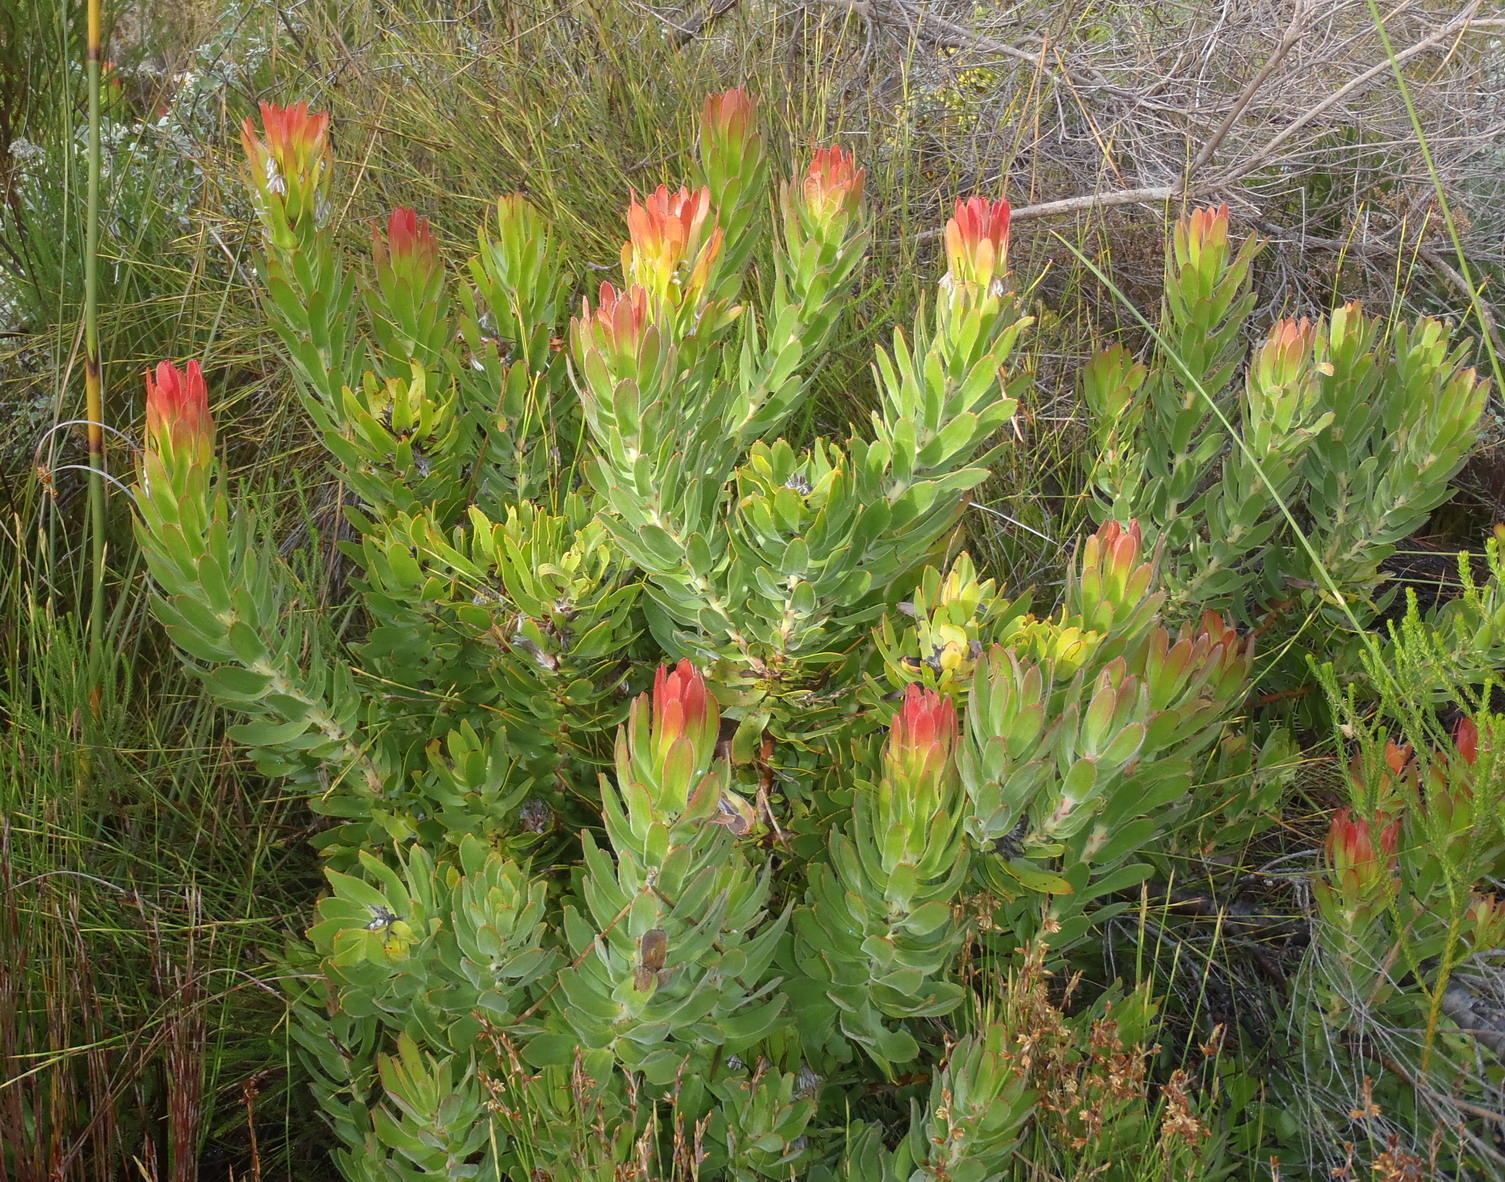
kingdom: Plantae
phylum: Tracheophyta
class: Magnoliopsida
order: Proteales
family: Proteaceae
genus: Mimetes
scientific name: Mimetes cucullatus
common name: Common pagoda
